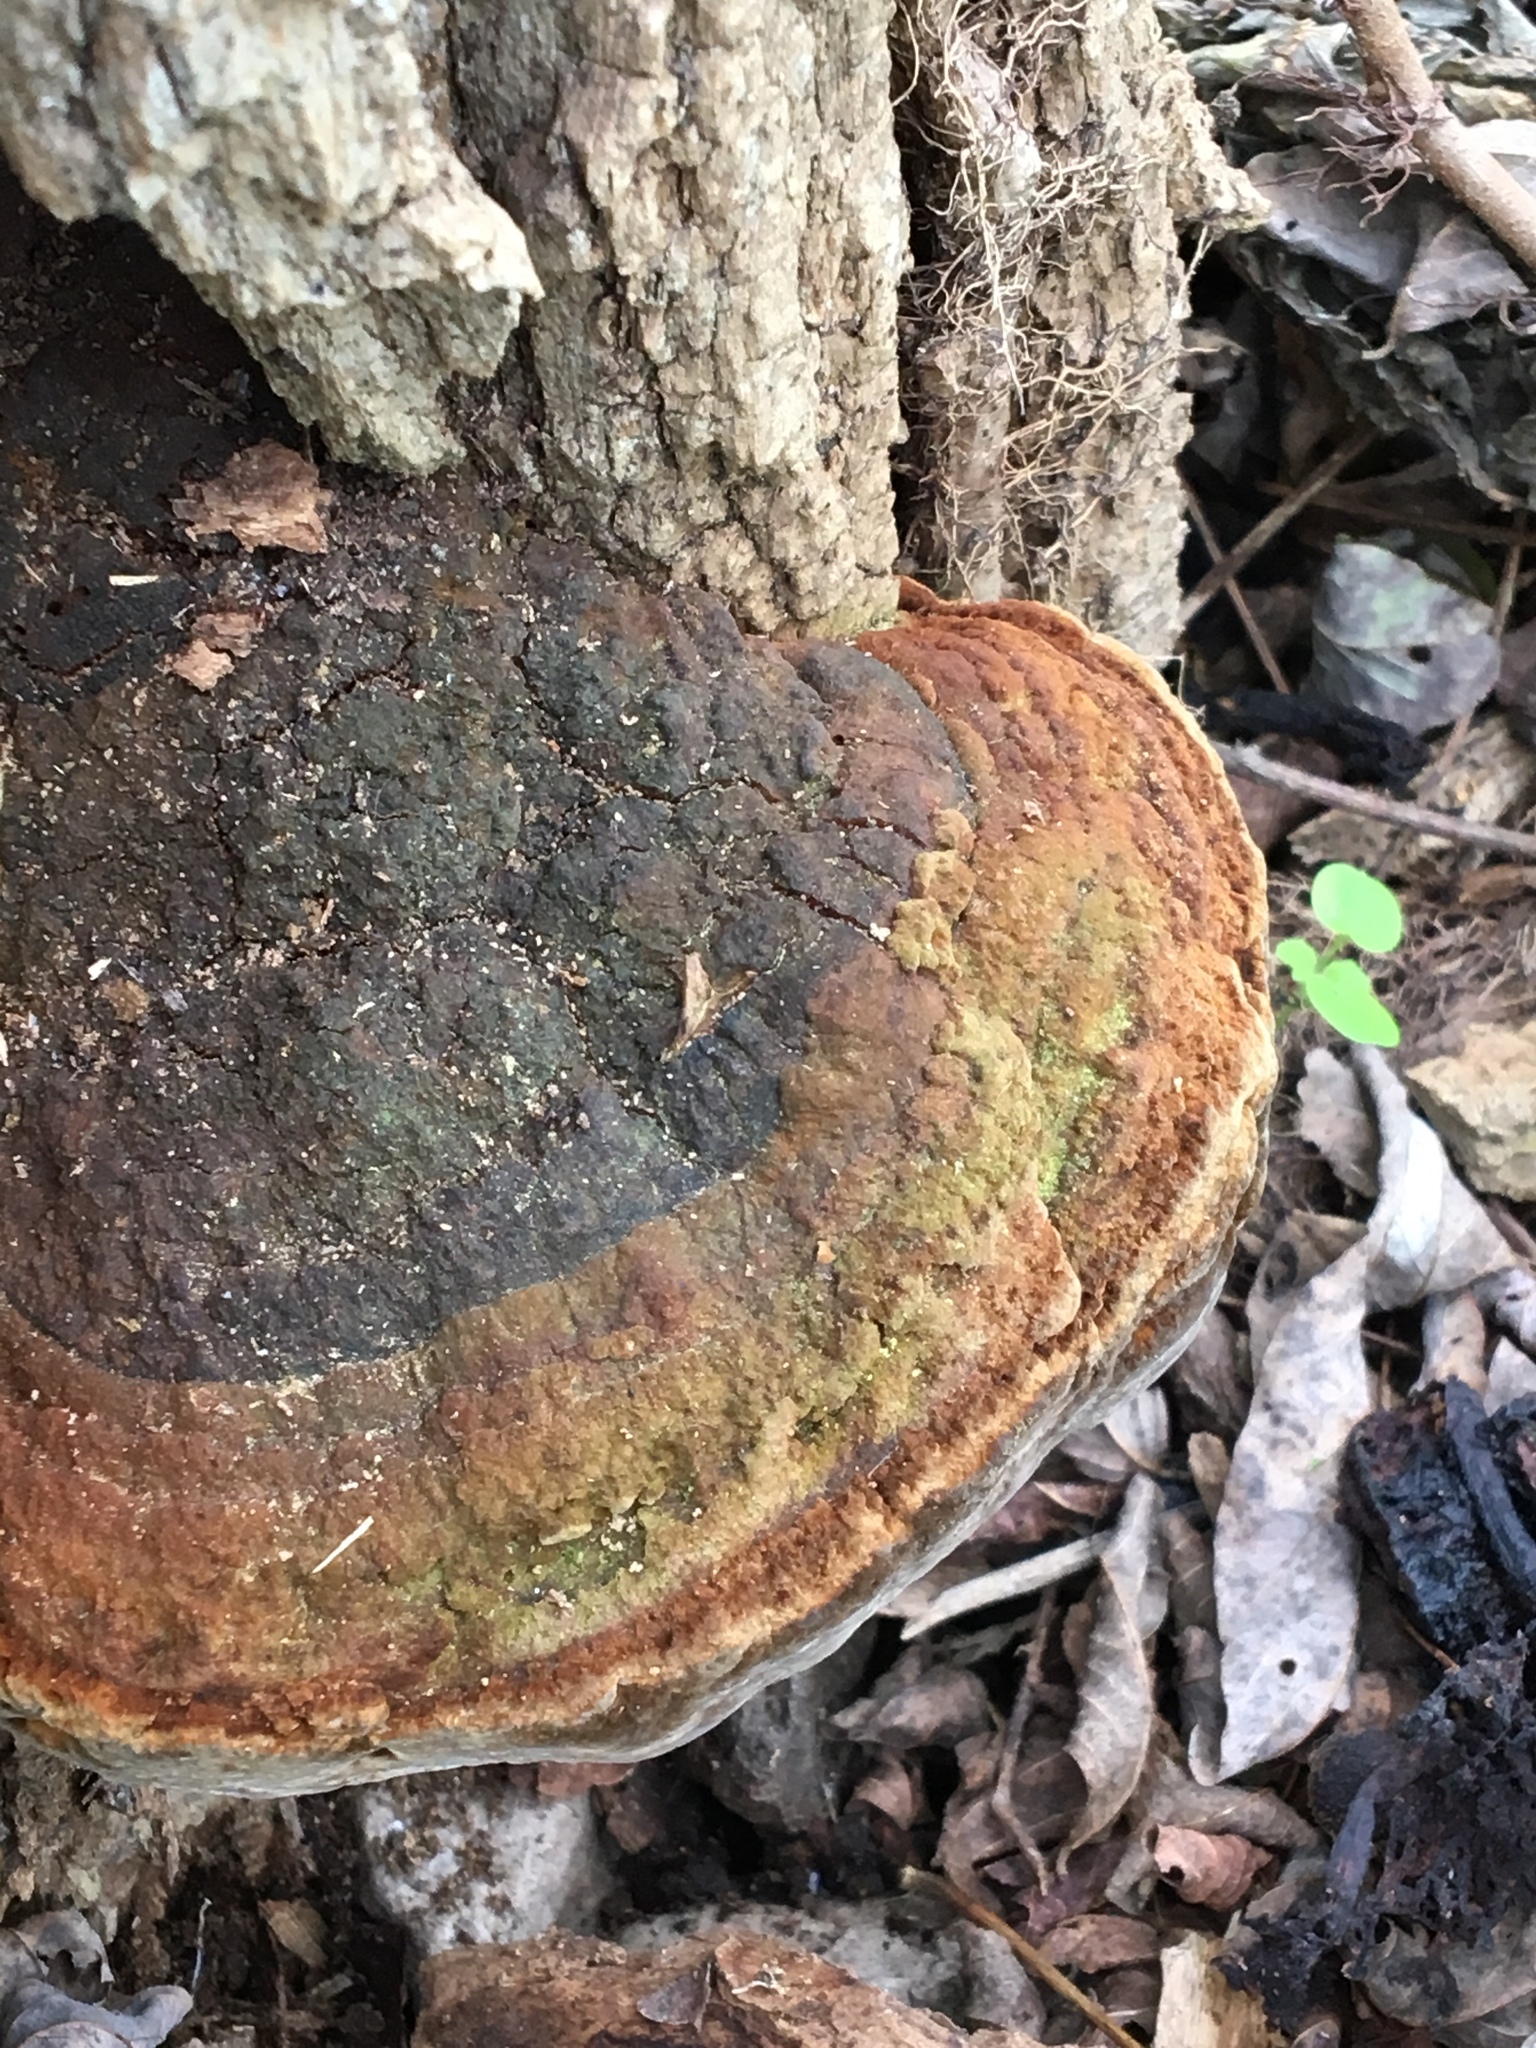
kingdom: Fungi
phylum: Basidiomycota
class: Agaricomycetes
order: Hymenochaetales
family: Hymenochaetaceae
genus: Phellinus
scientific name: Phellinus robiniae
